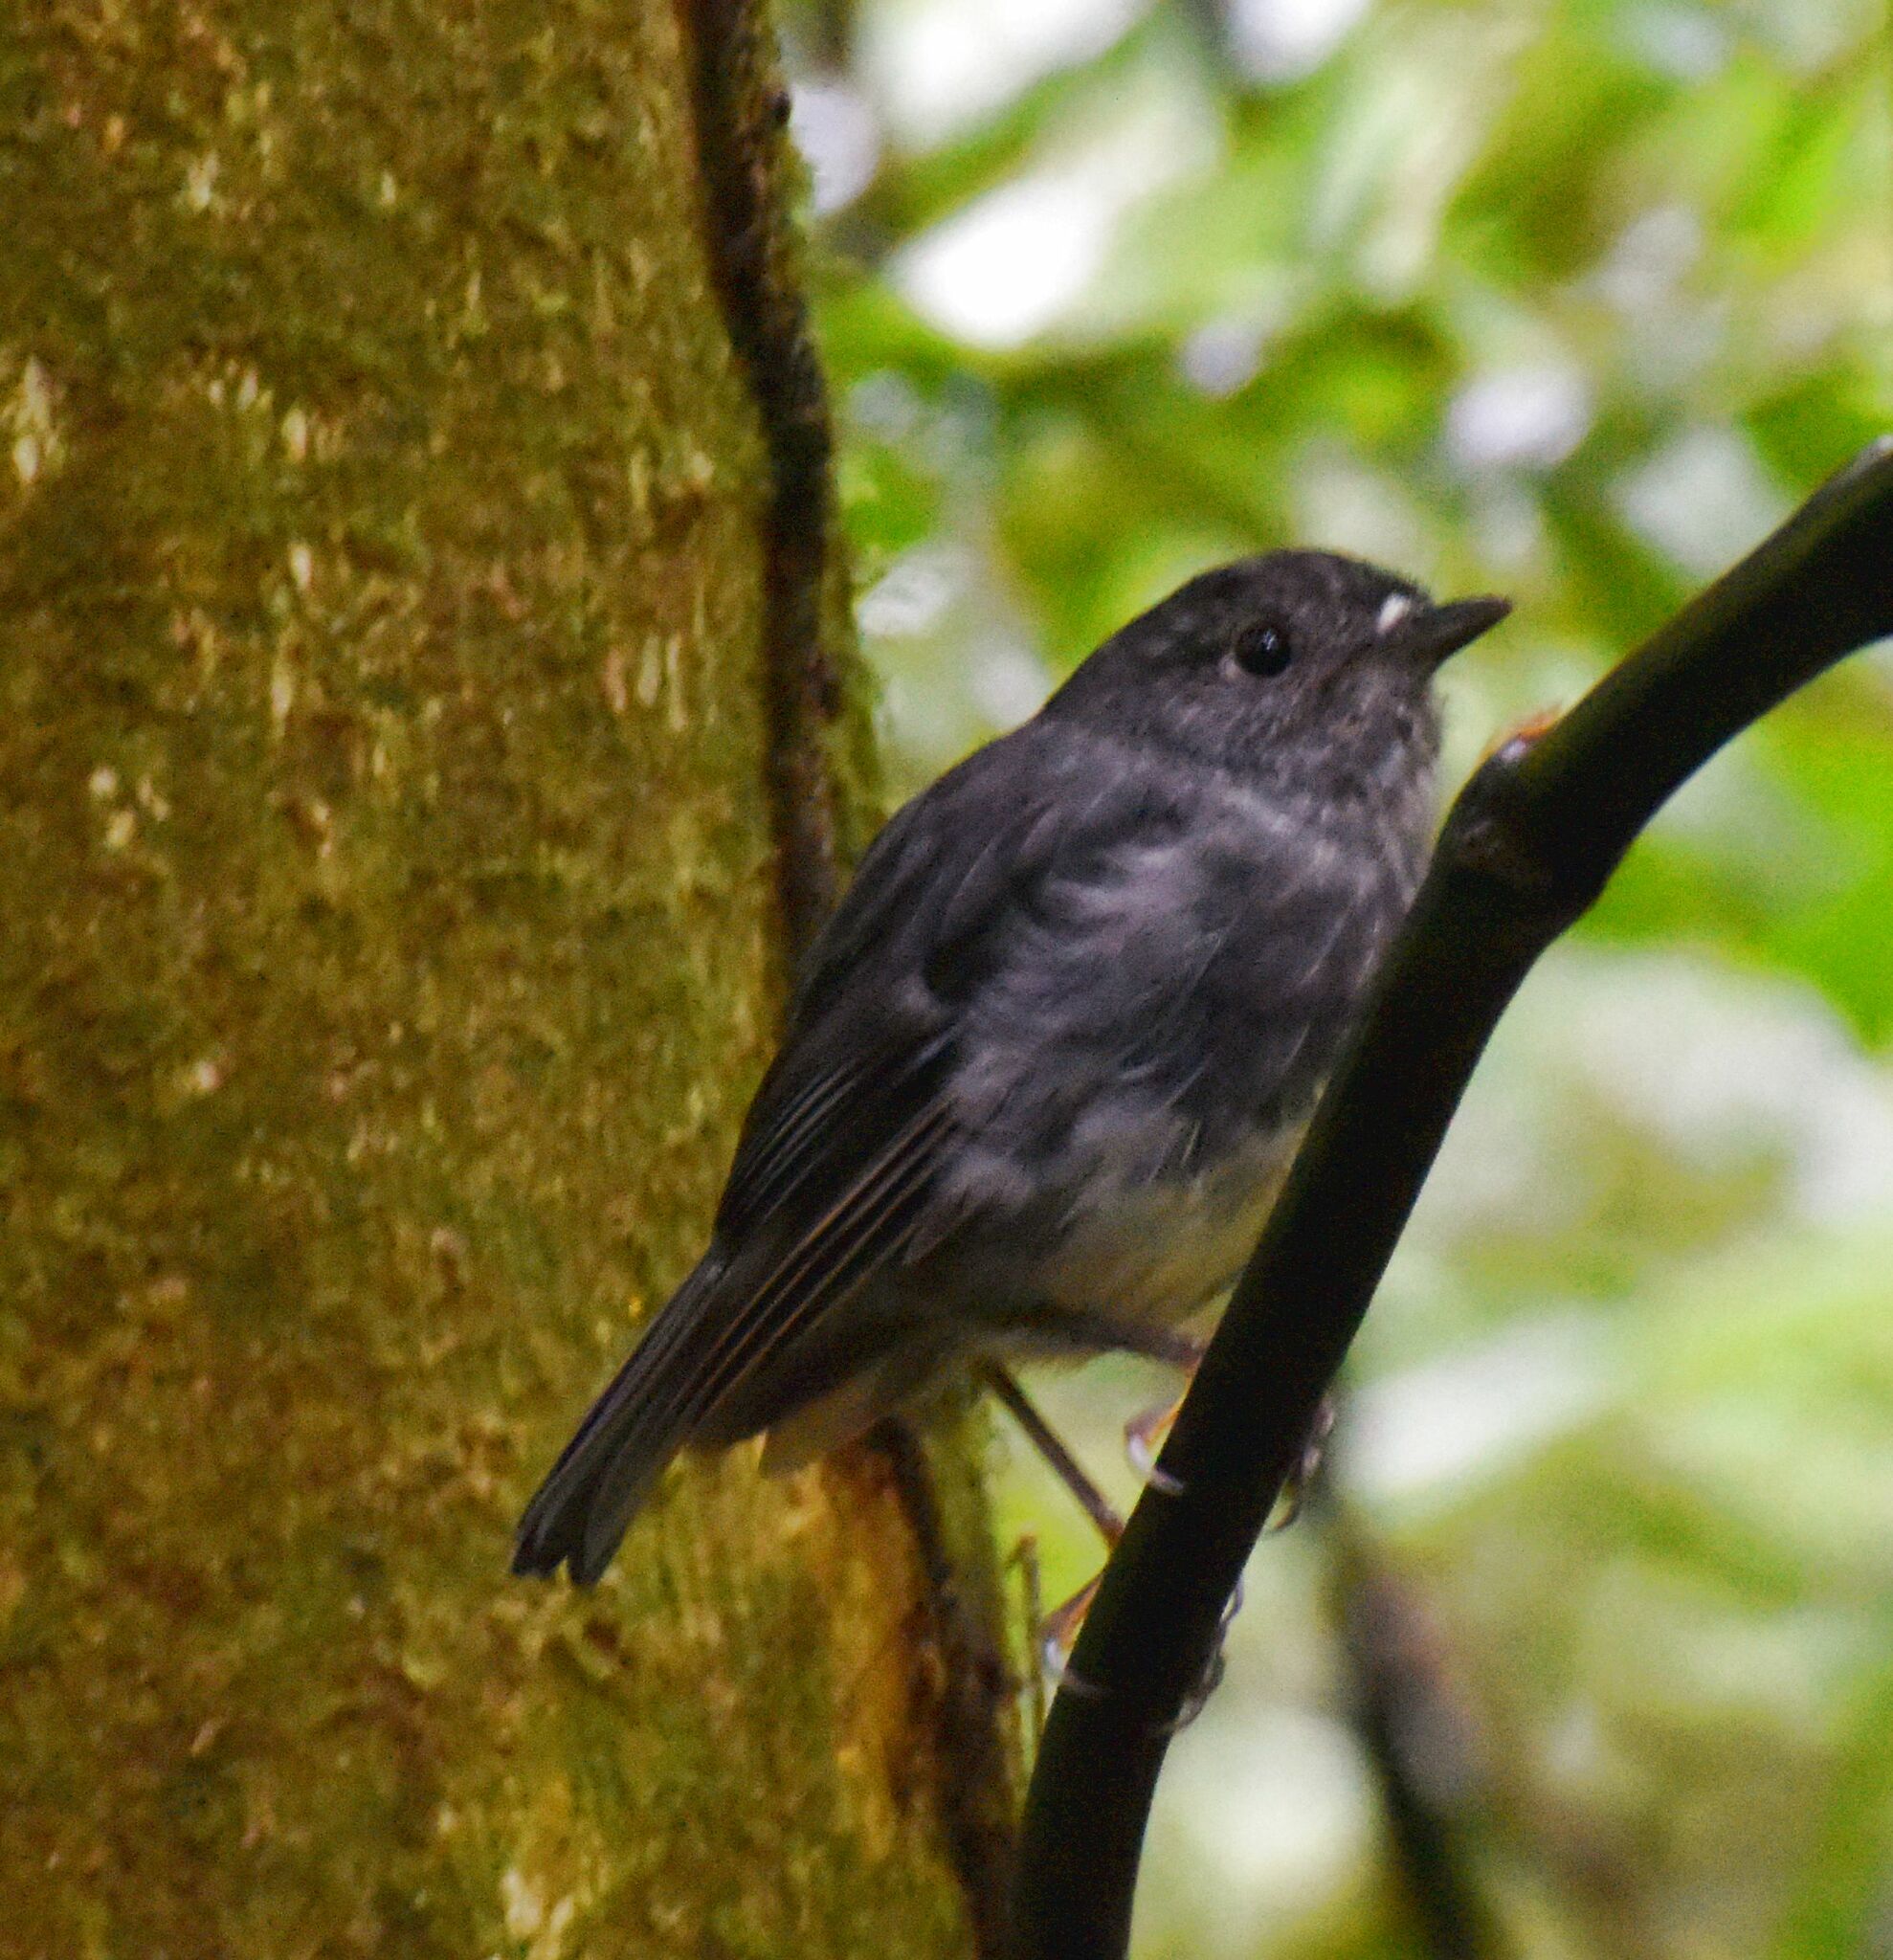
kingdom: Animalia
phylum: Chordata
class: Aves
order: Passeriformes
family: Petroicidae
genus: Petroica
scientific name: Petroica australis
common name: New zealand robin
